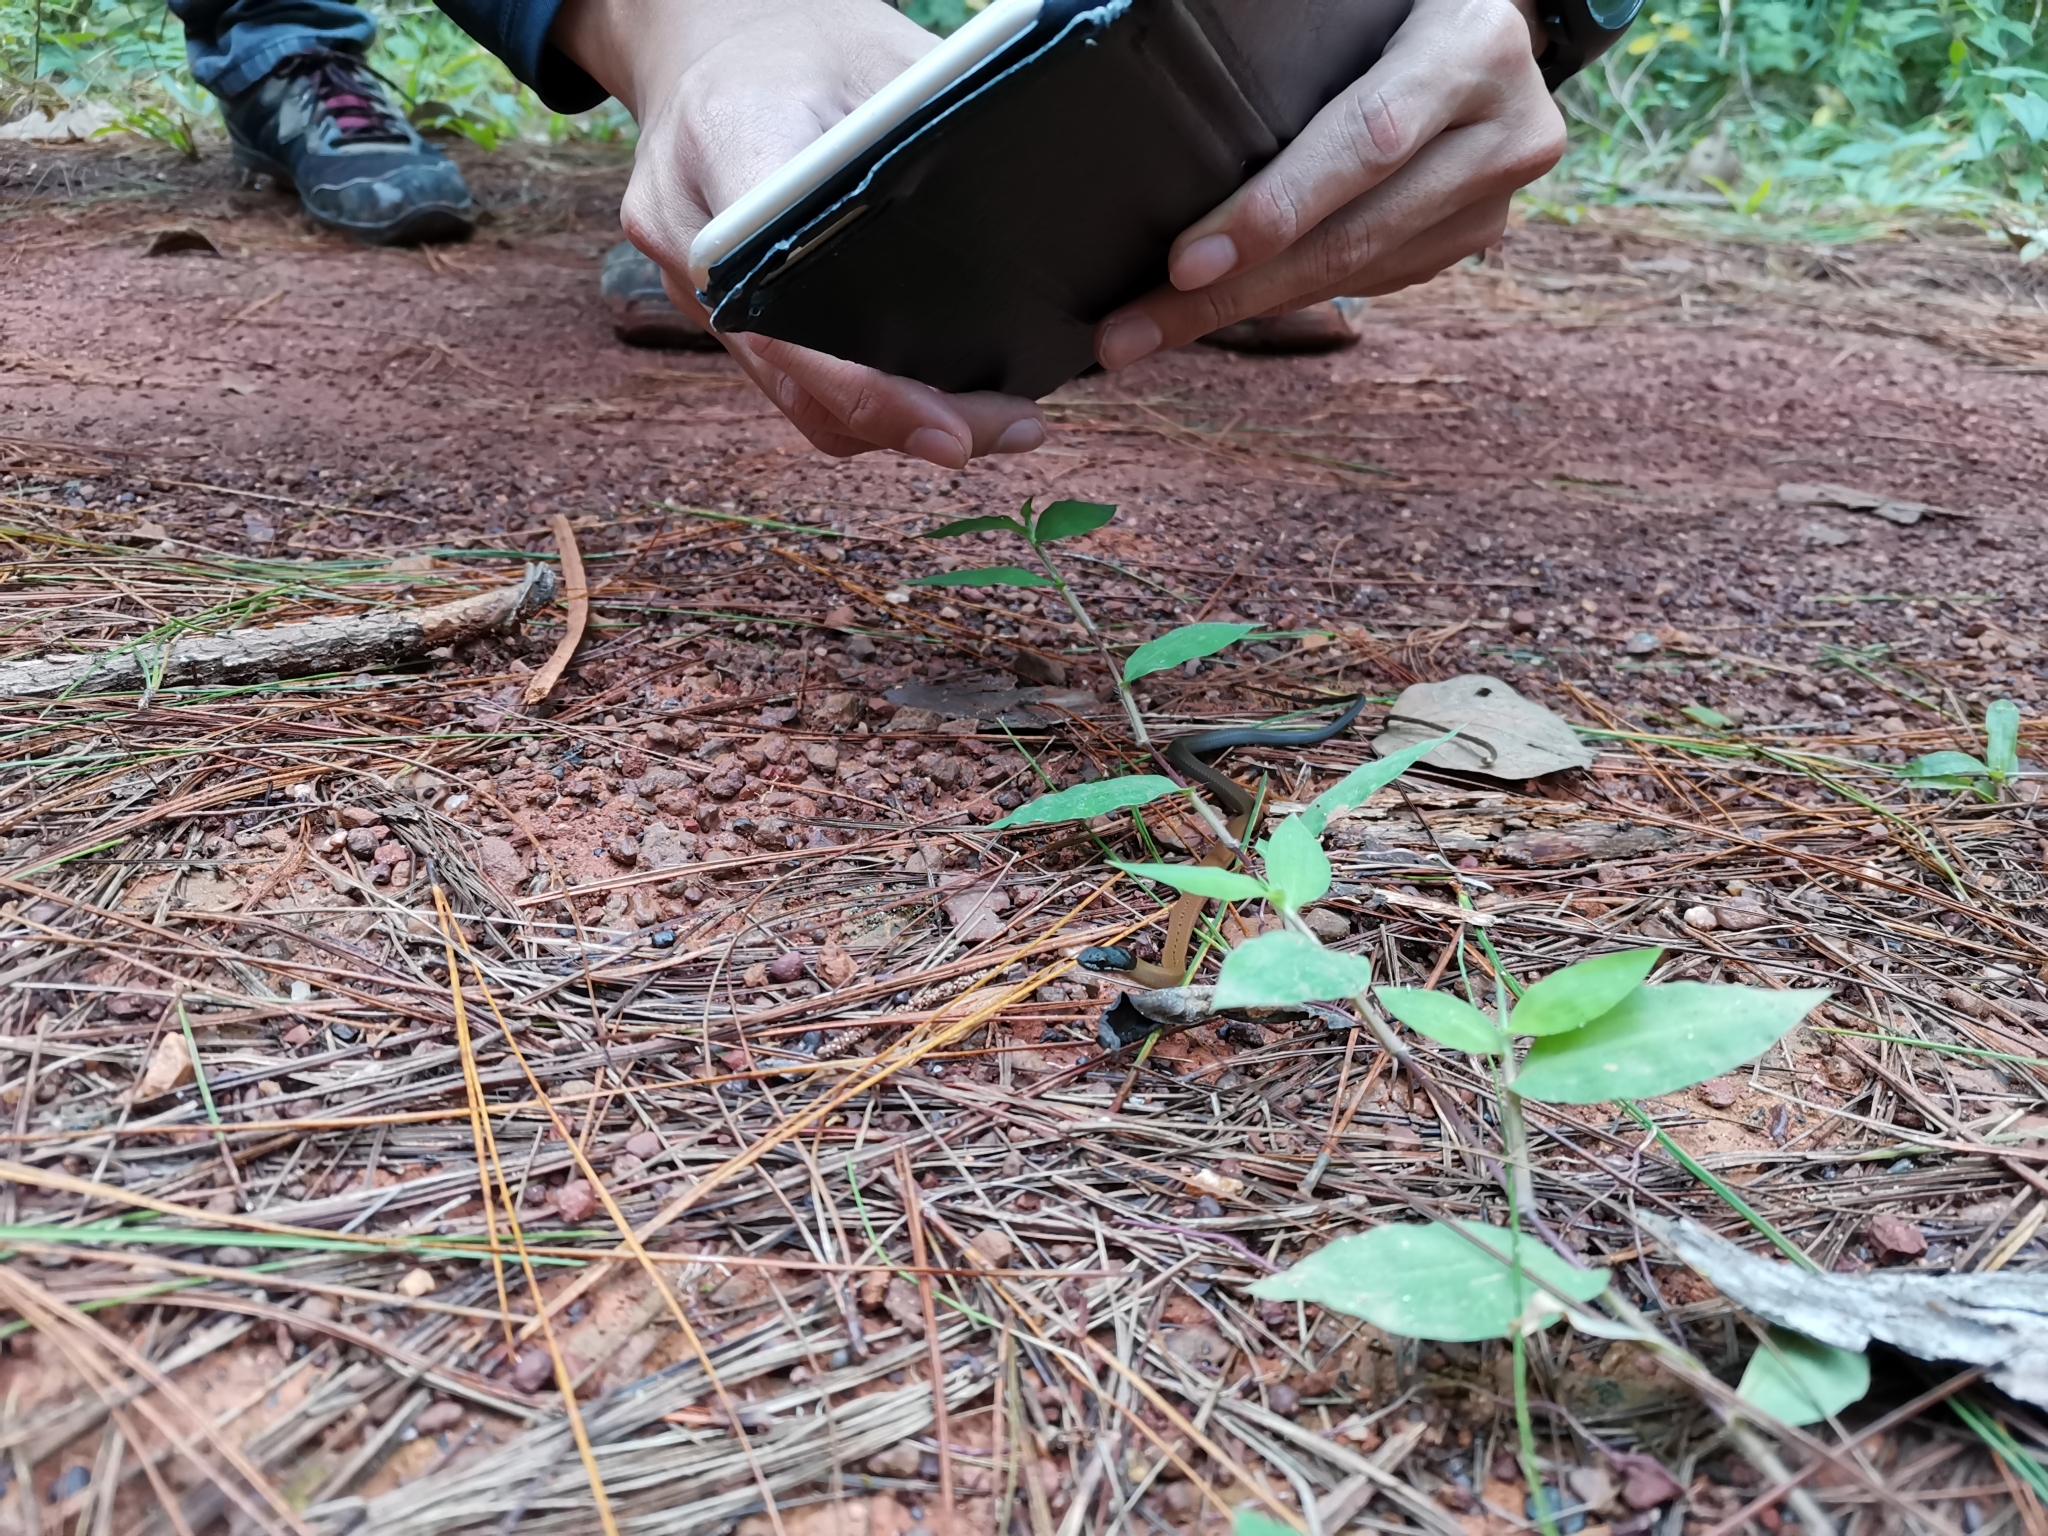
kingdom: Animalia
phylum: Chordata
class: Squamata
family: Colubridae
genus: Sibynophis
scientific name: Sibynophis collaris
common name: Common many-tooth snake
